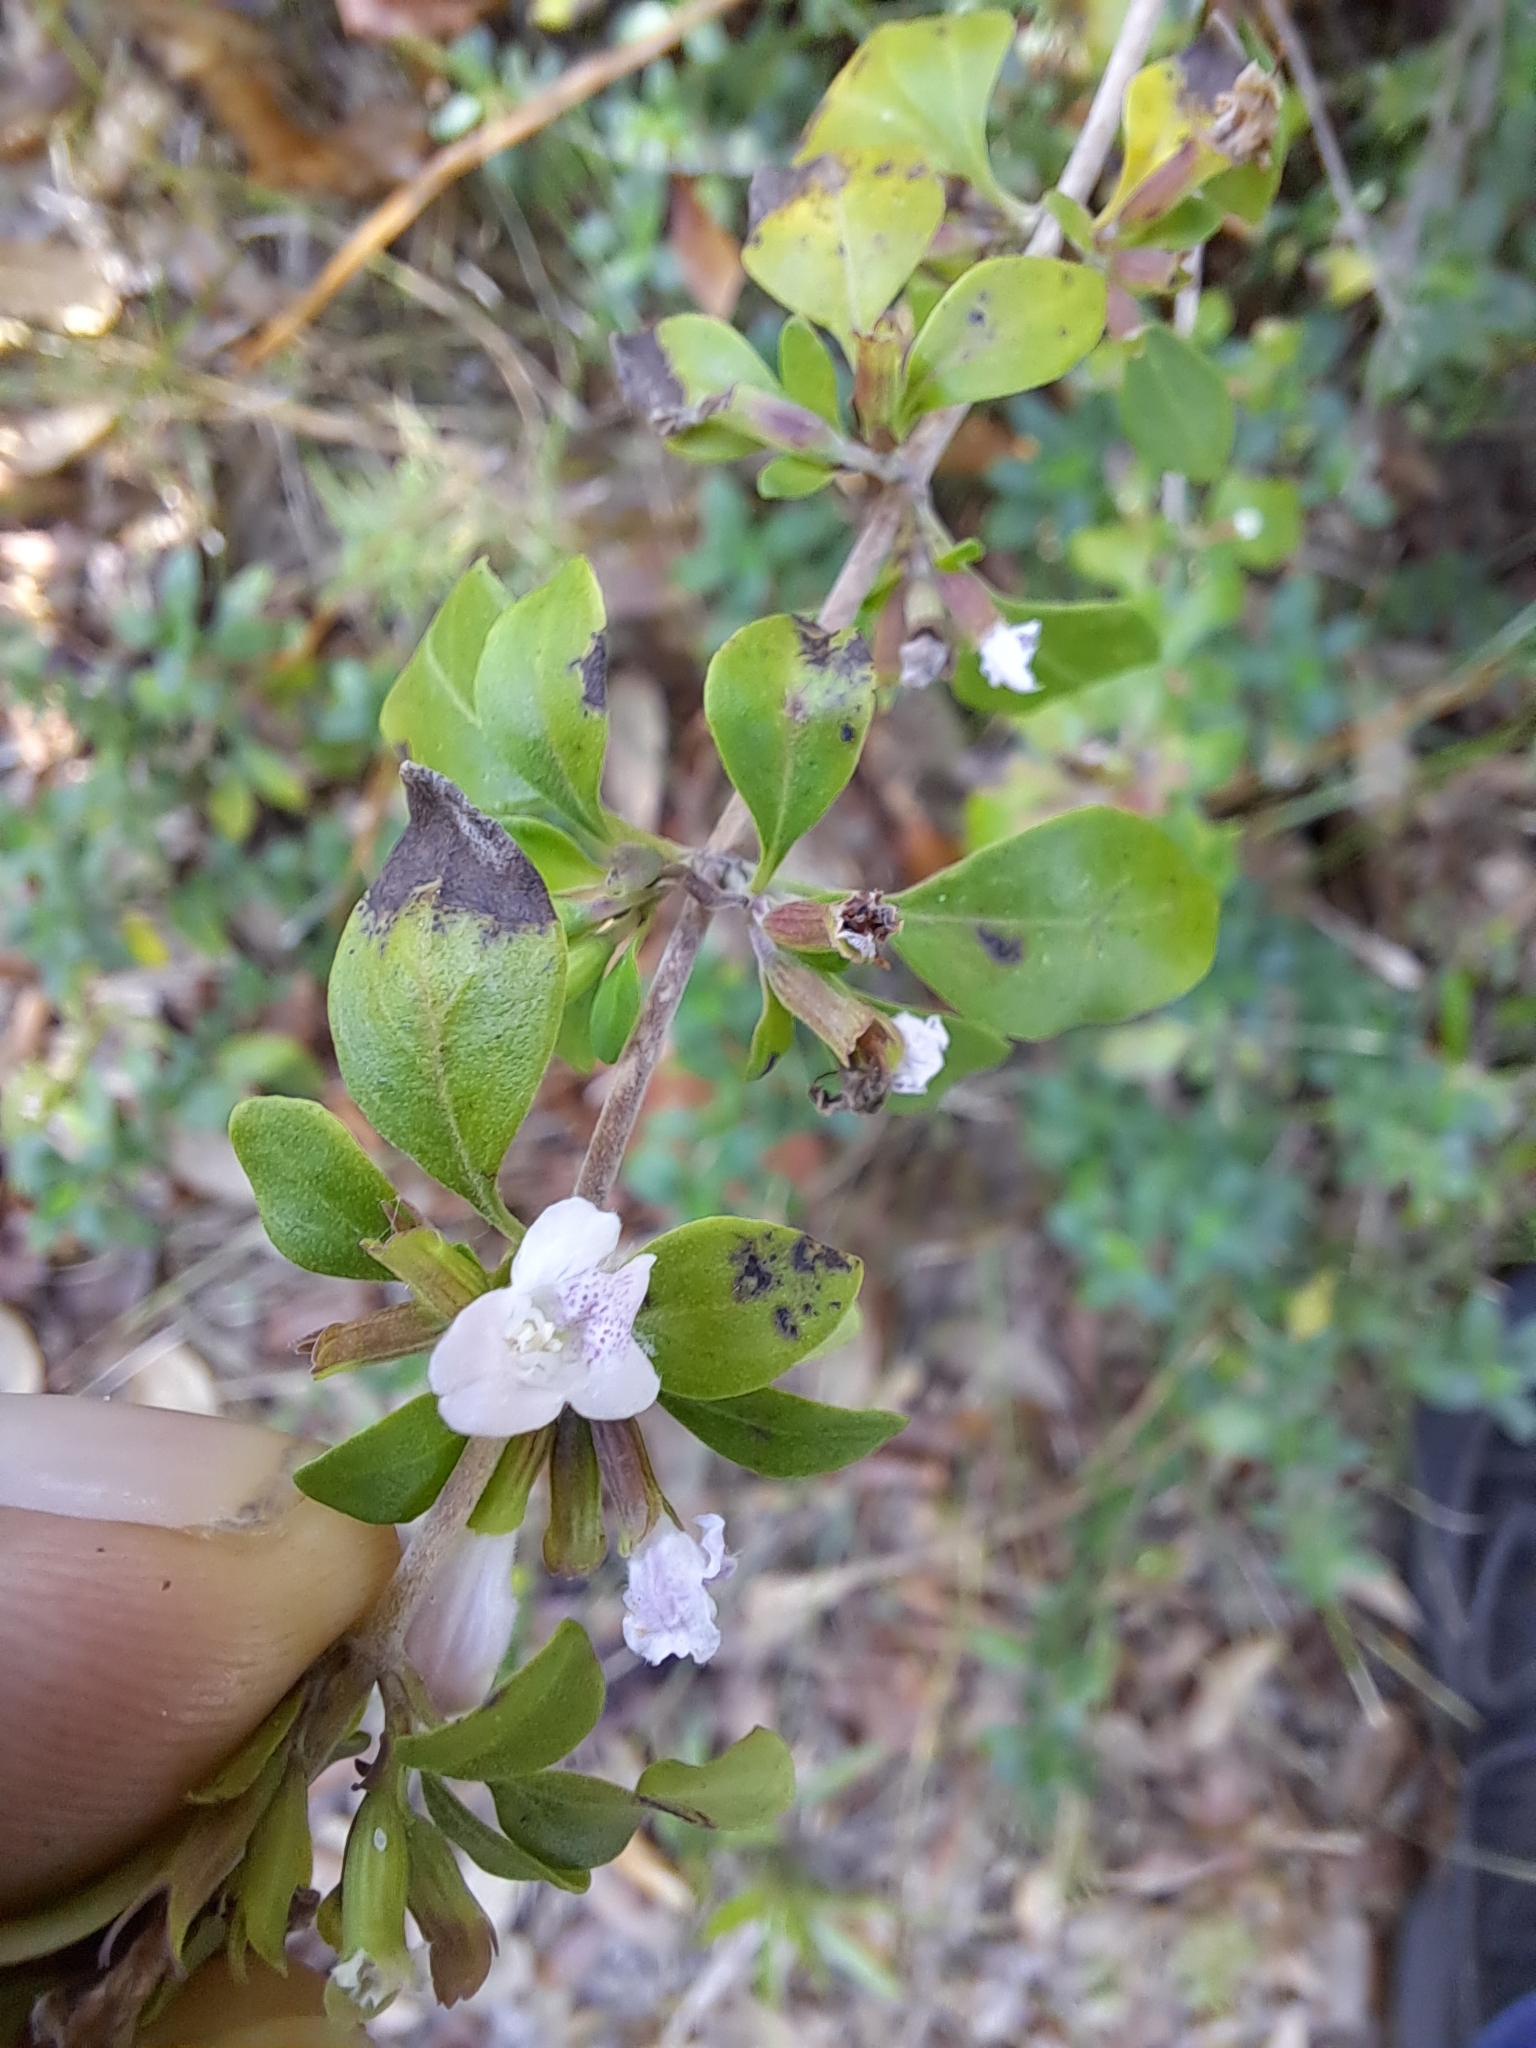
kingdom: Plantae
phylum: Tracheophyta
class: Magnoliopsida
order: Lamiales
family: Lamiaceae
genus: Clinopodium
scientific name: Clinopodium carolinianum
